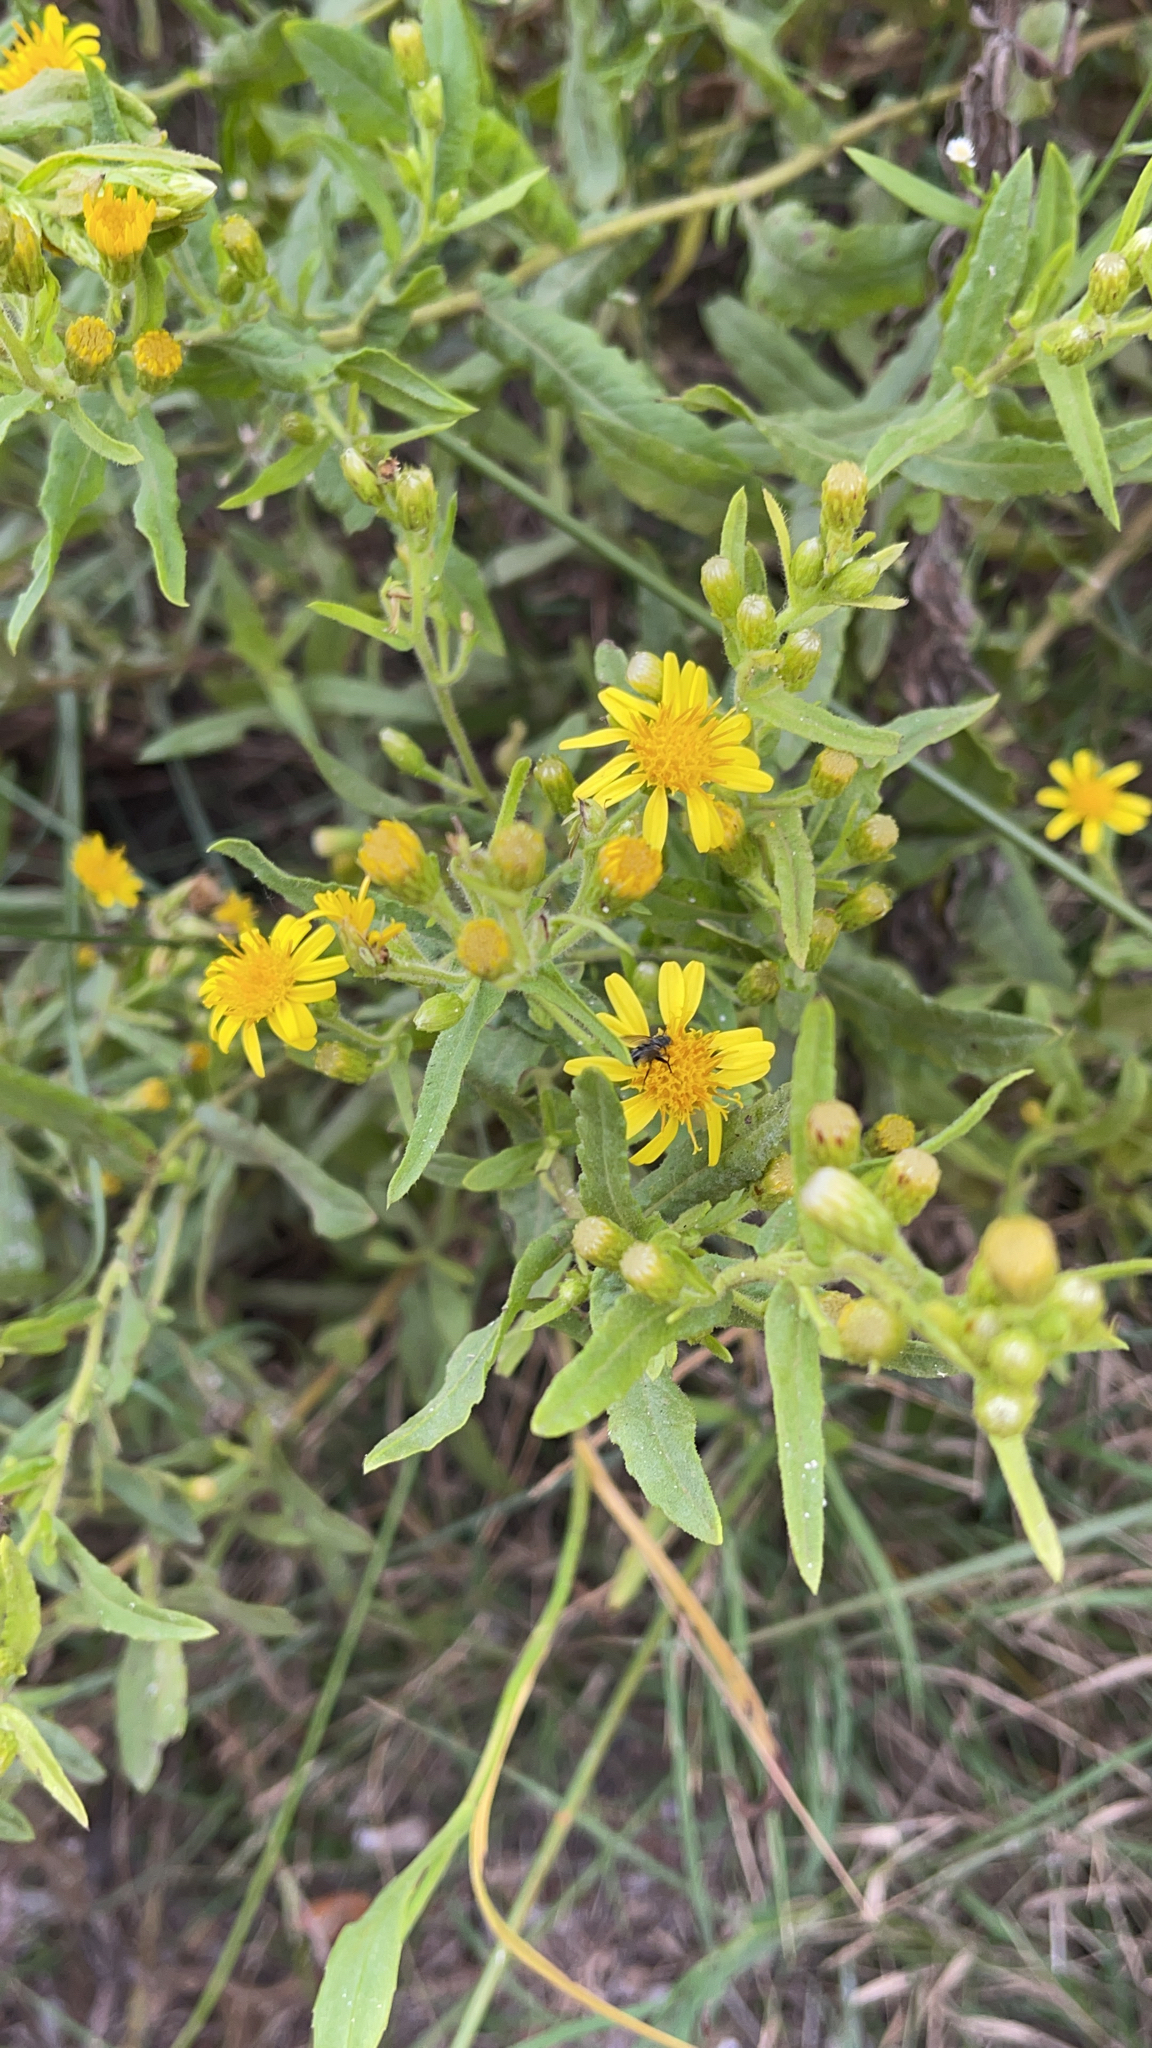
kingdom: Plantae
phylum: Tracheophyta
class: Magnoliopsida
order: Asterales
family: Asteraceae
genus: Dittrichia
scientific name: Dittrichia viscosa
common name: Woody fleabane
